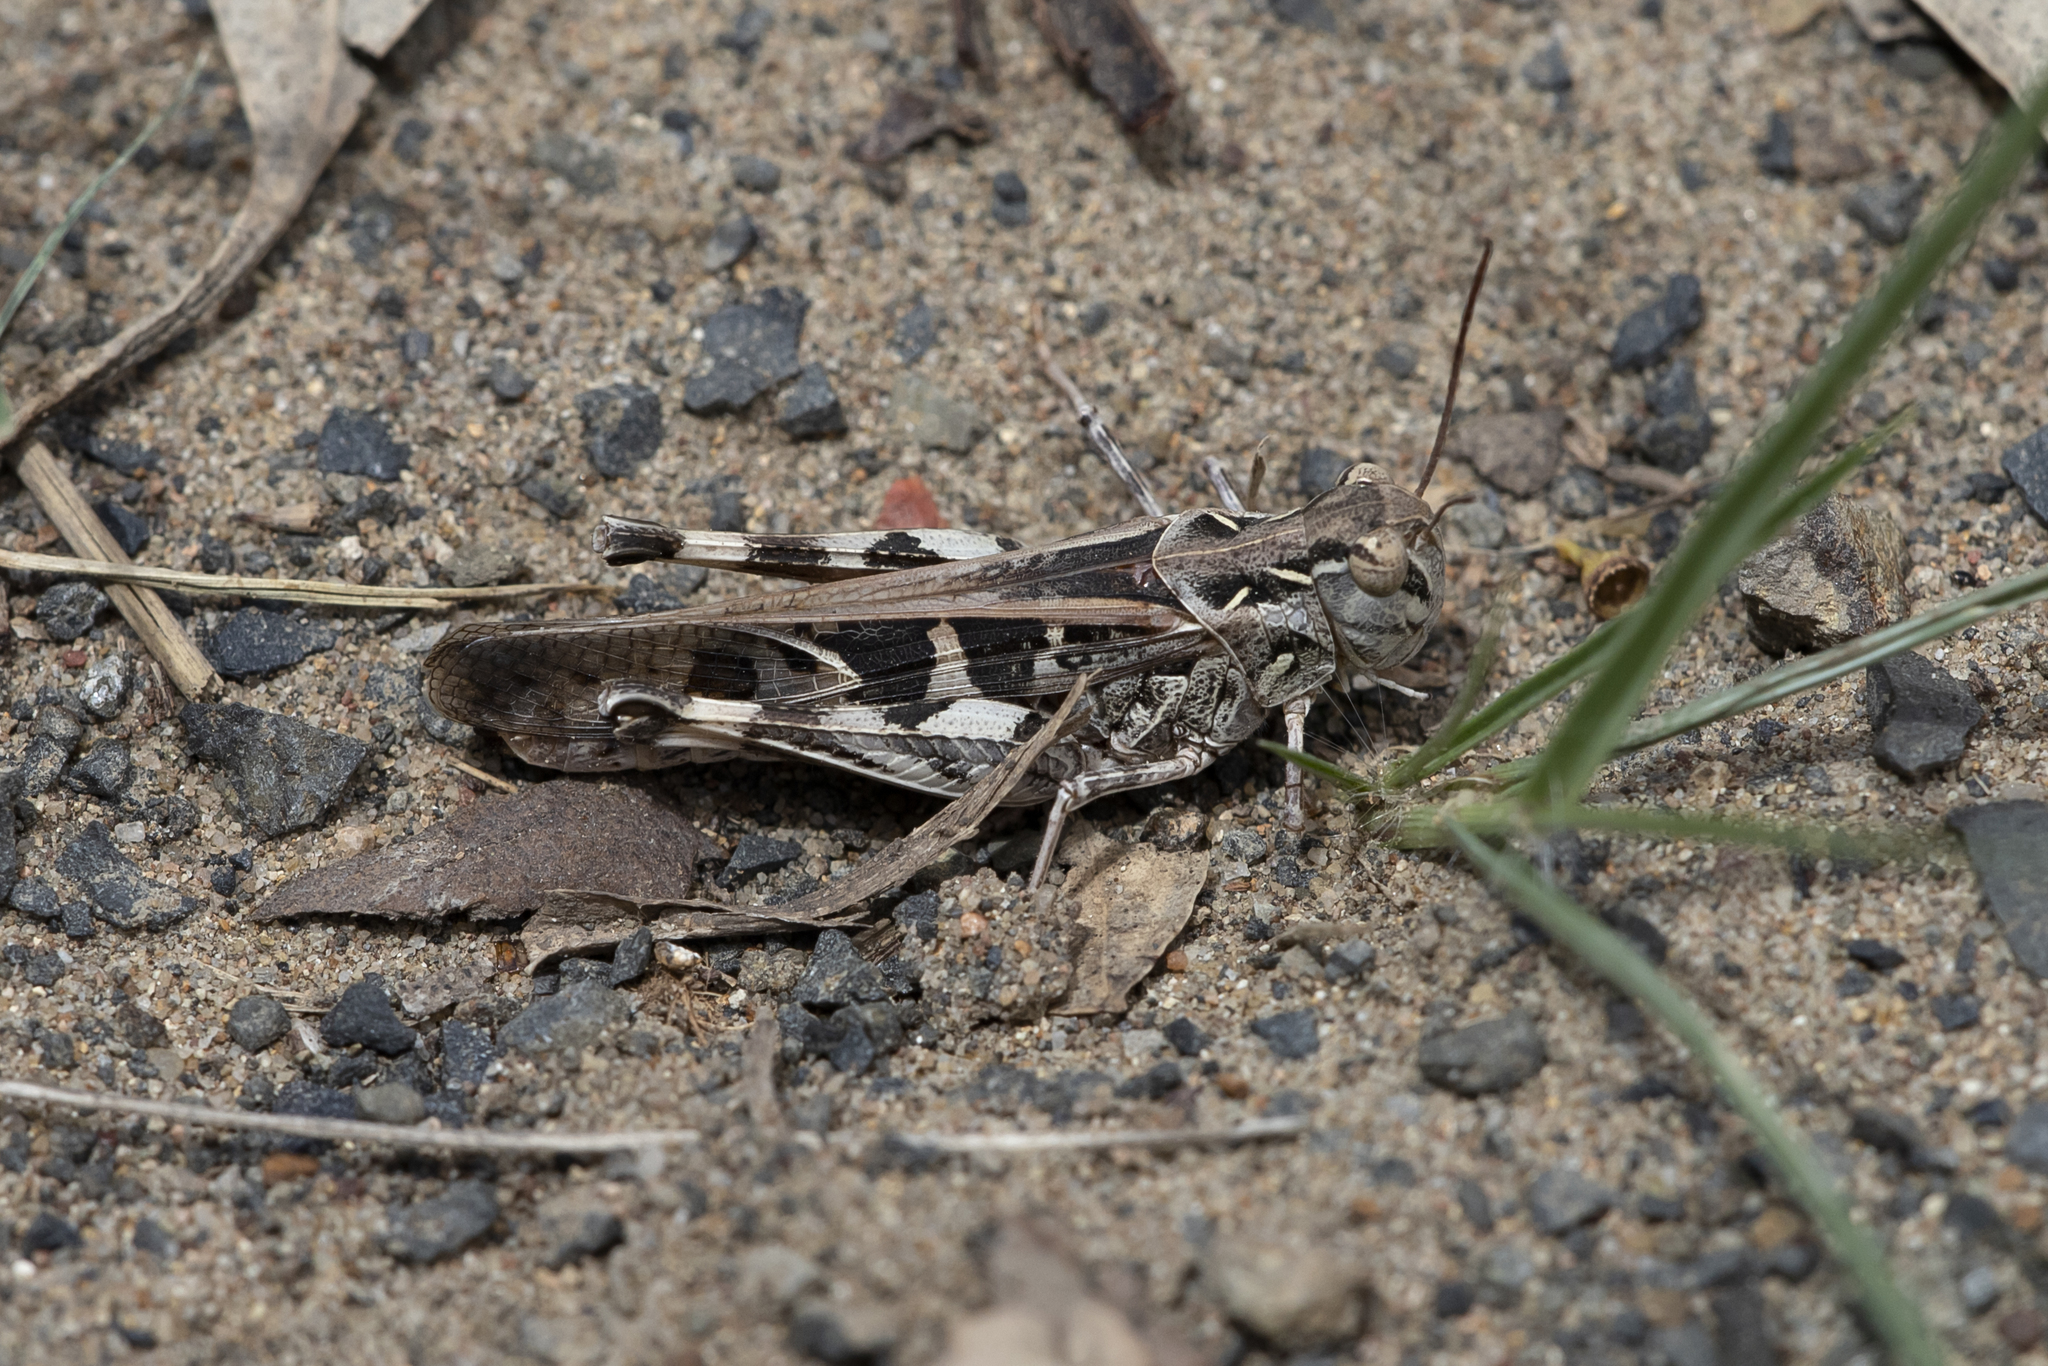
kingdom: Animalia
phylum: Arthropoda
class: Insecta
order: Orthoptera
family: Acrididae
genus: Chortoicetes
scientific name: Chortoicetes terminifera
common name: Australian plague locust
